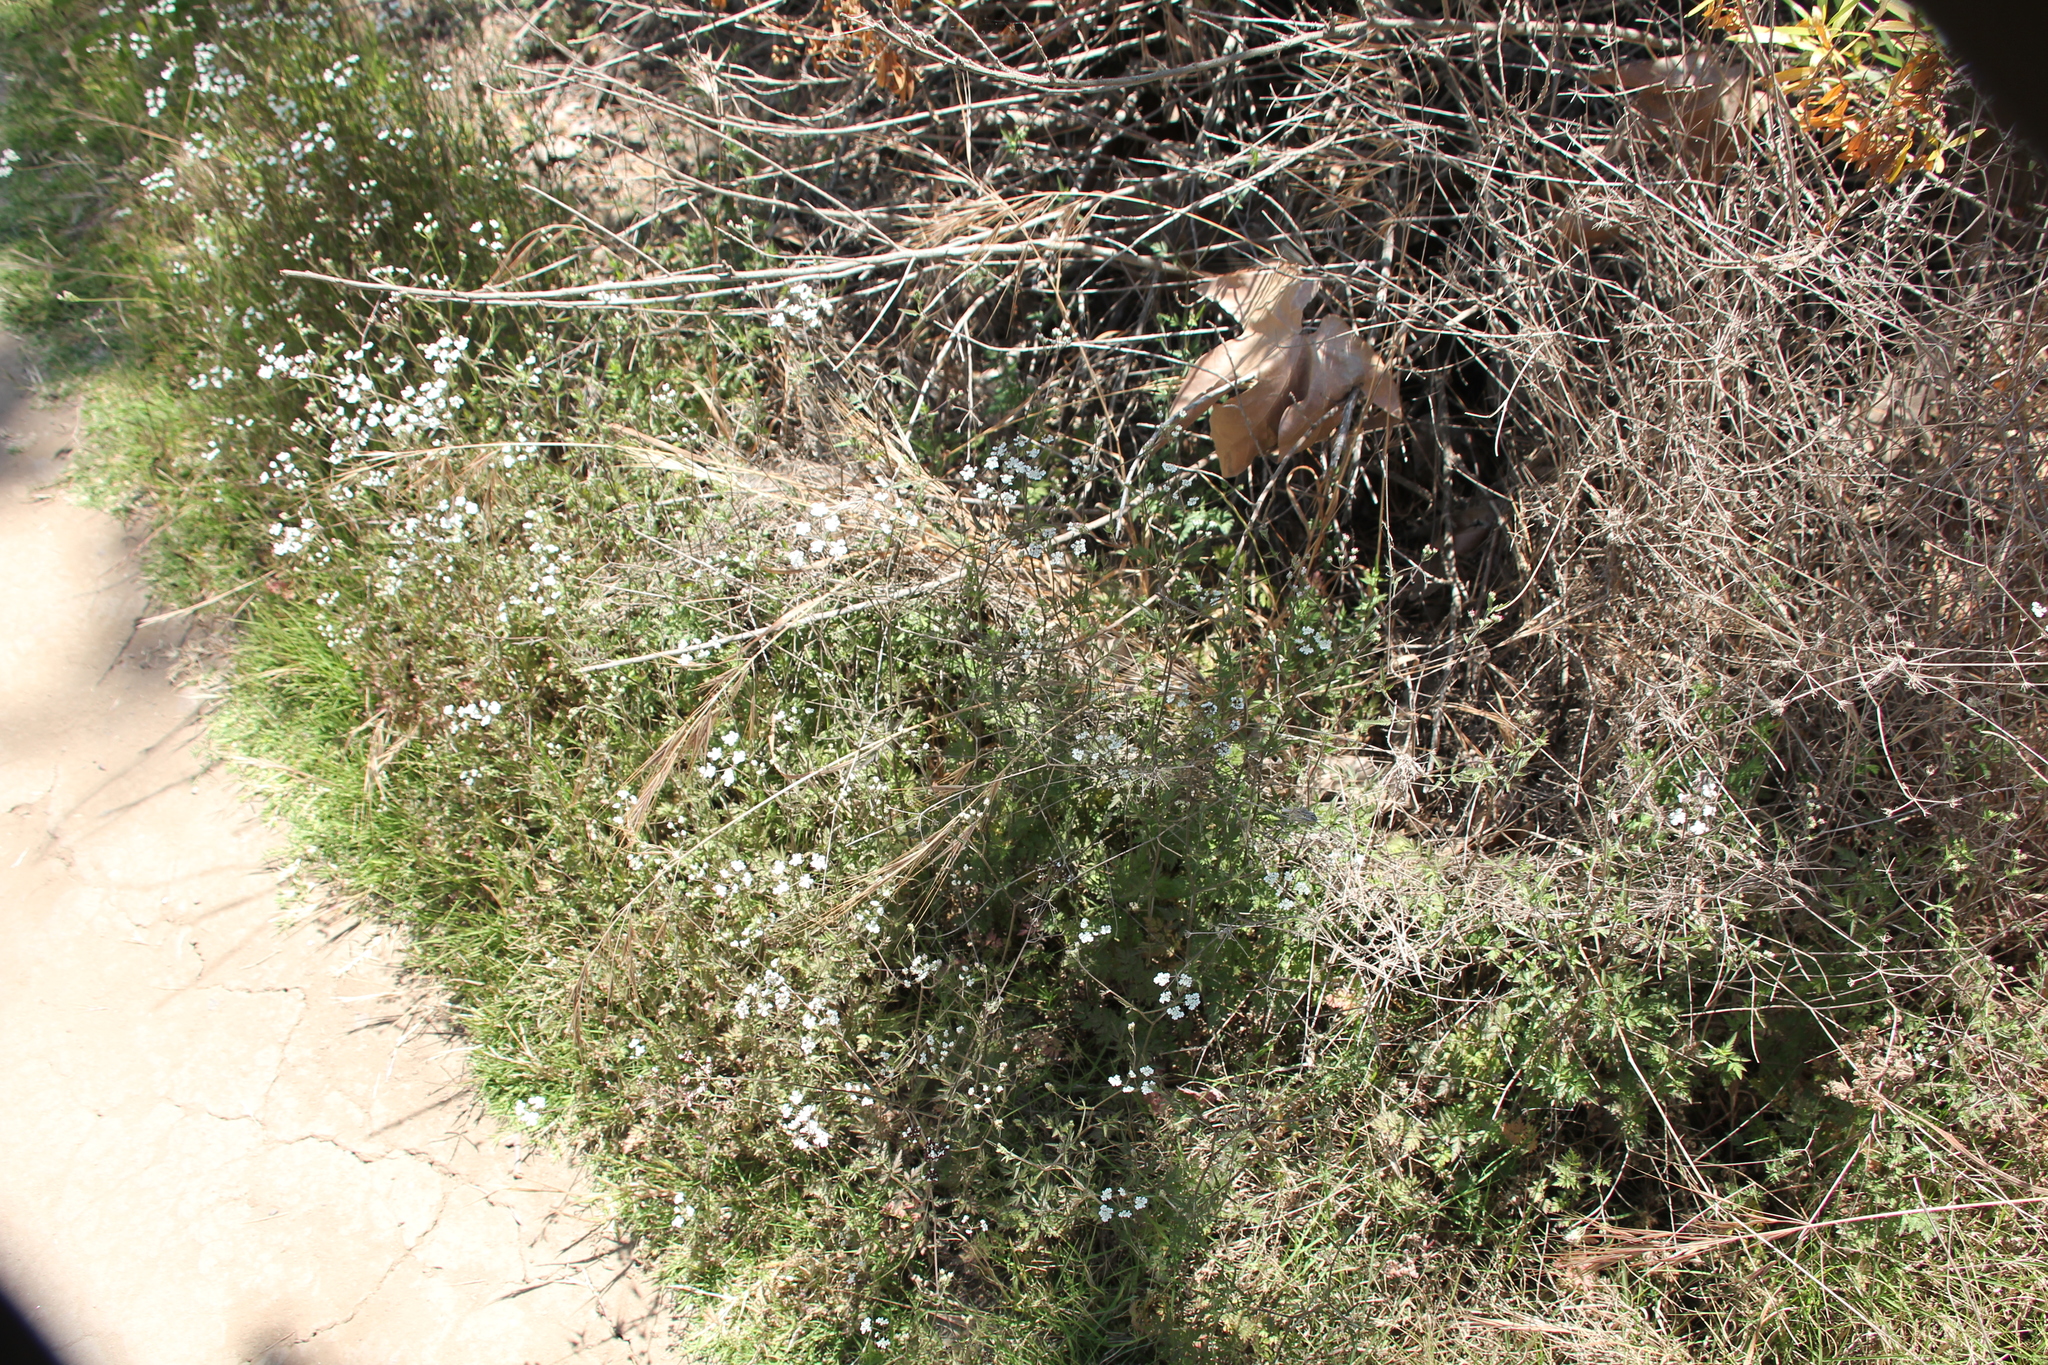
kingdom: Plantae
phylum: Tracheophyta
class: Magnoliopsida
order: Apiales
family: Apiaceae
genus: Torilis
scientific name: Torilis arvensis
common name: Spreading hedge-parsley
